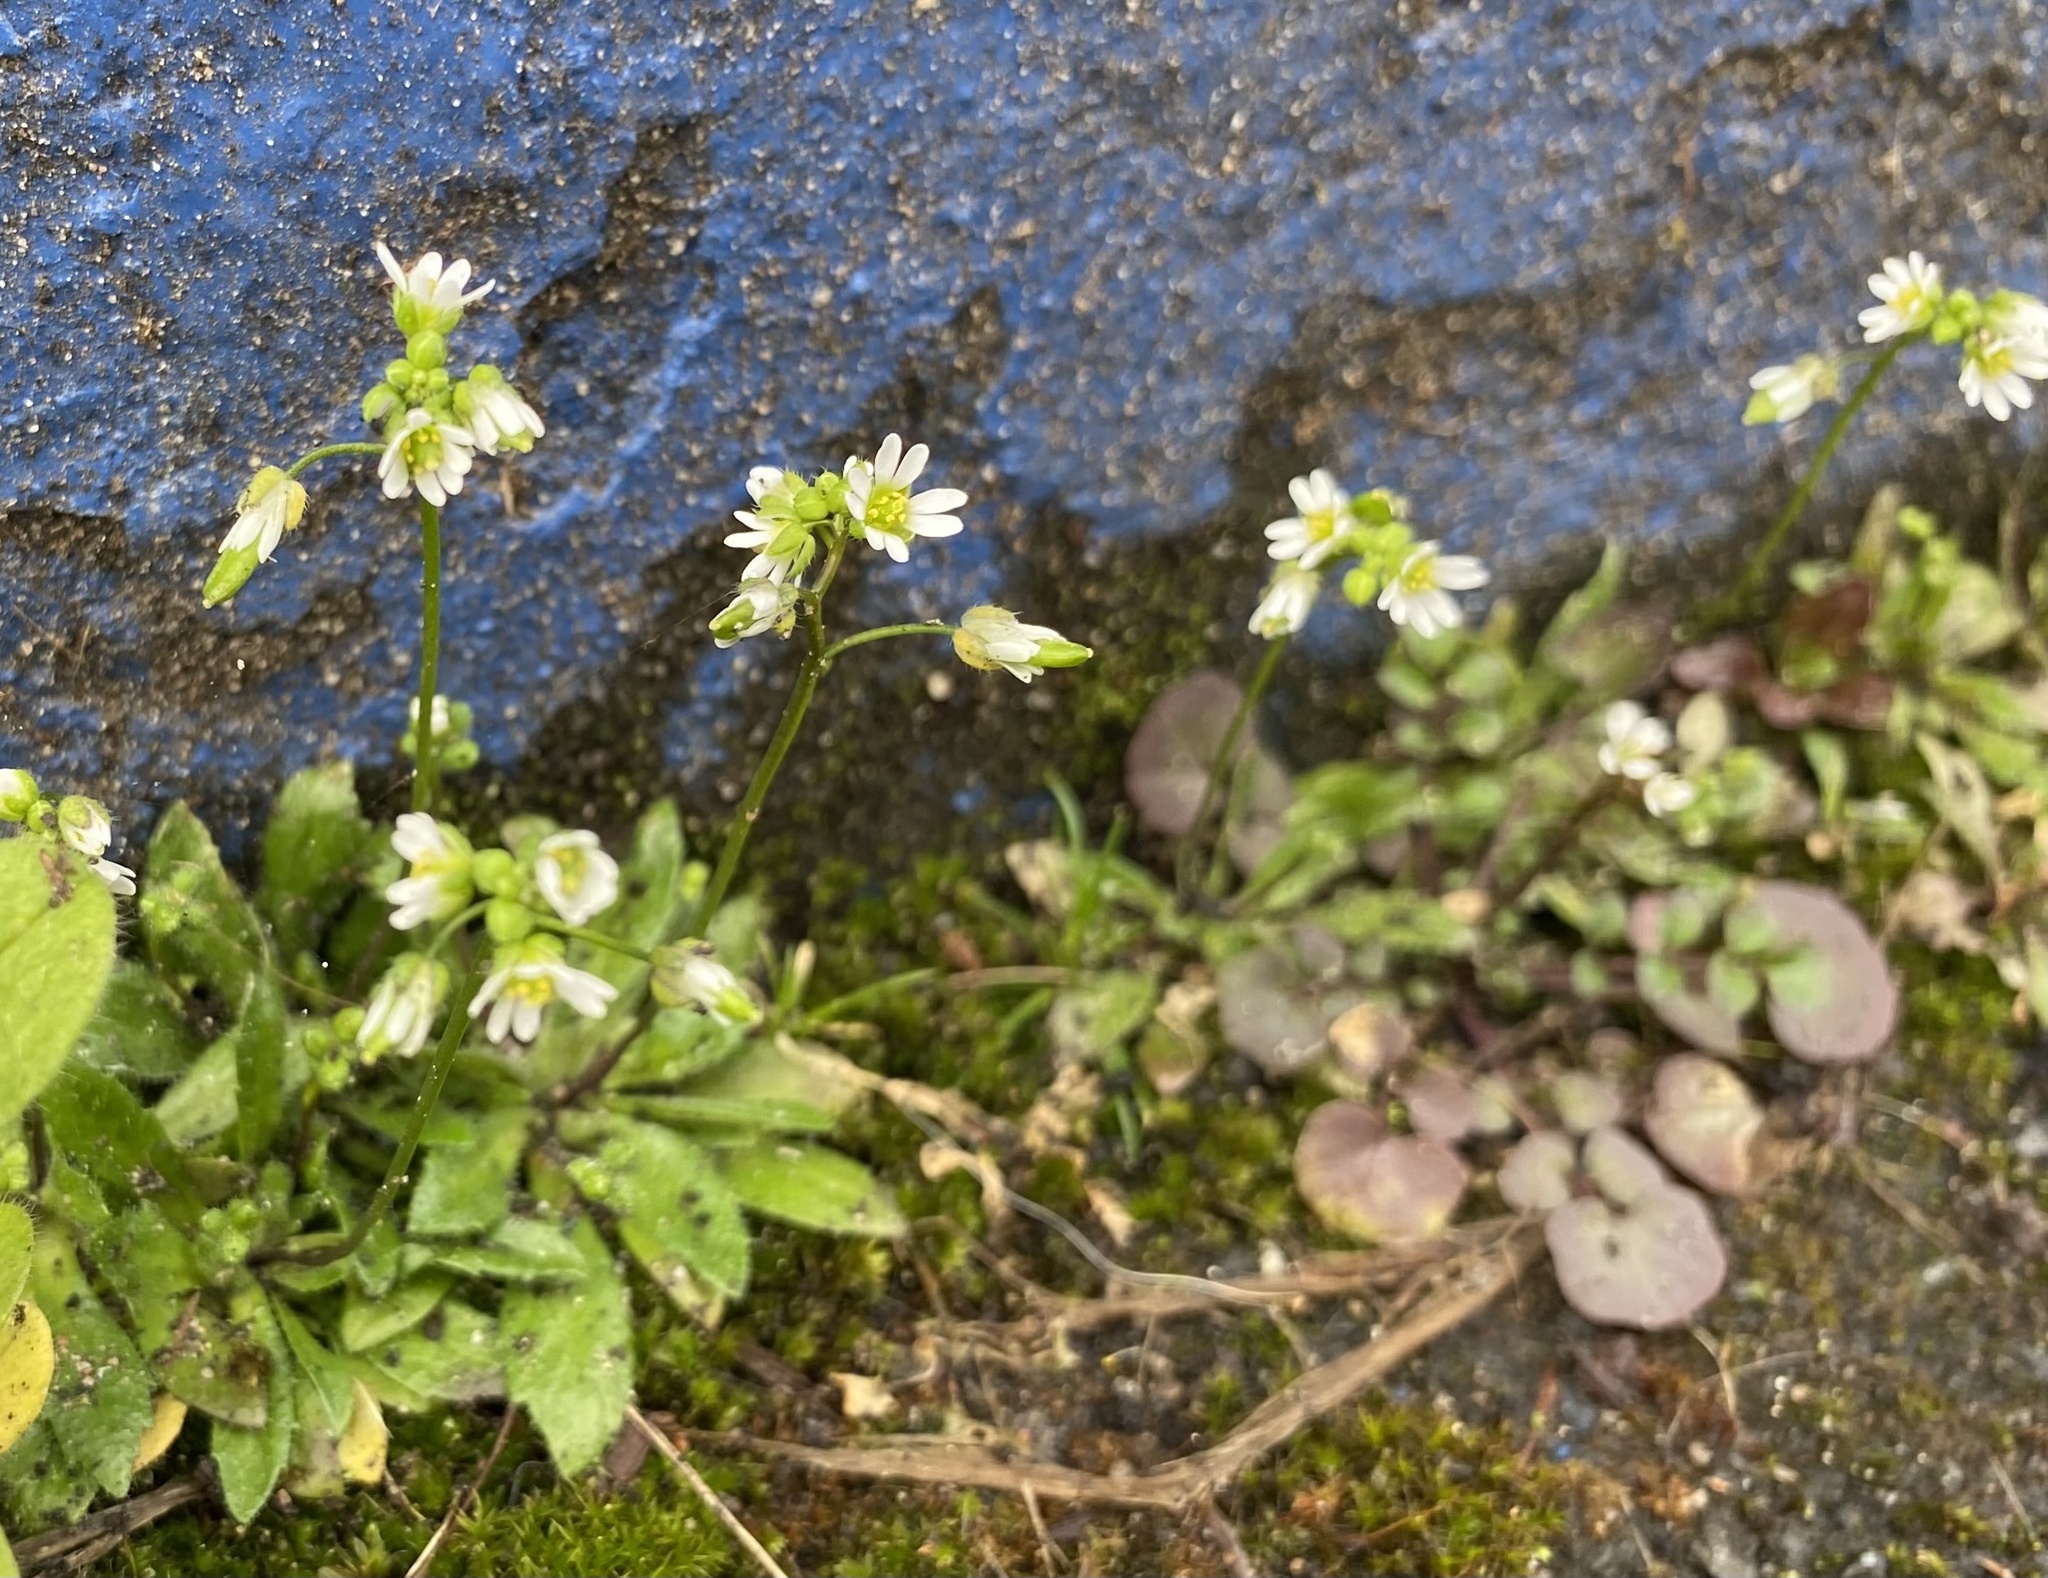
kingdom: Plantae
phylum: Tracheophyta
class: Magnoliopsida
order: Brassicales
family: Brassicaceae
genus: Draba
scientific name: Draba verna
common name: Spring draba
